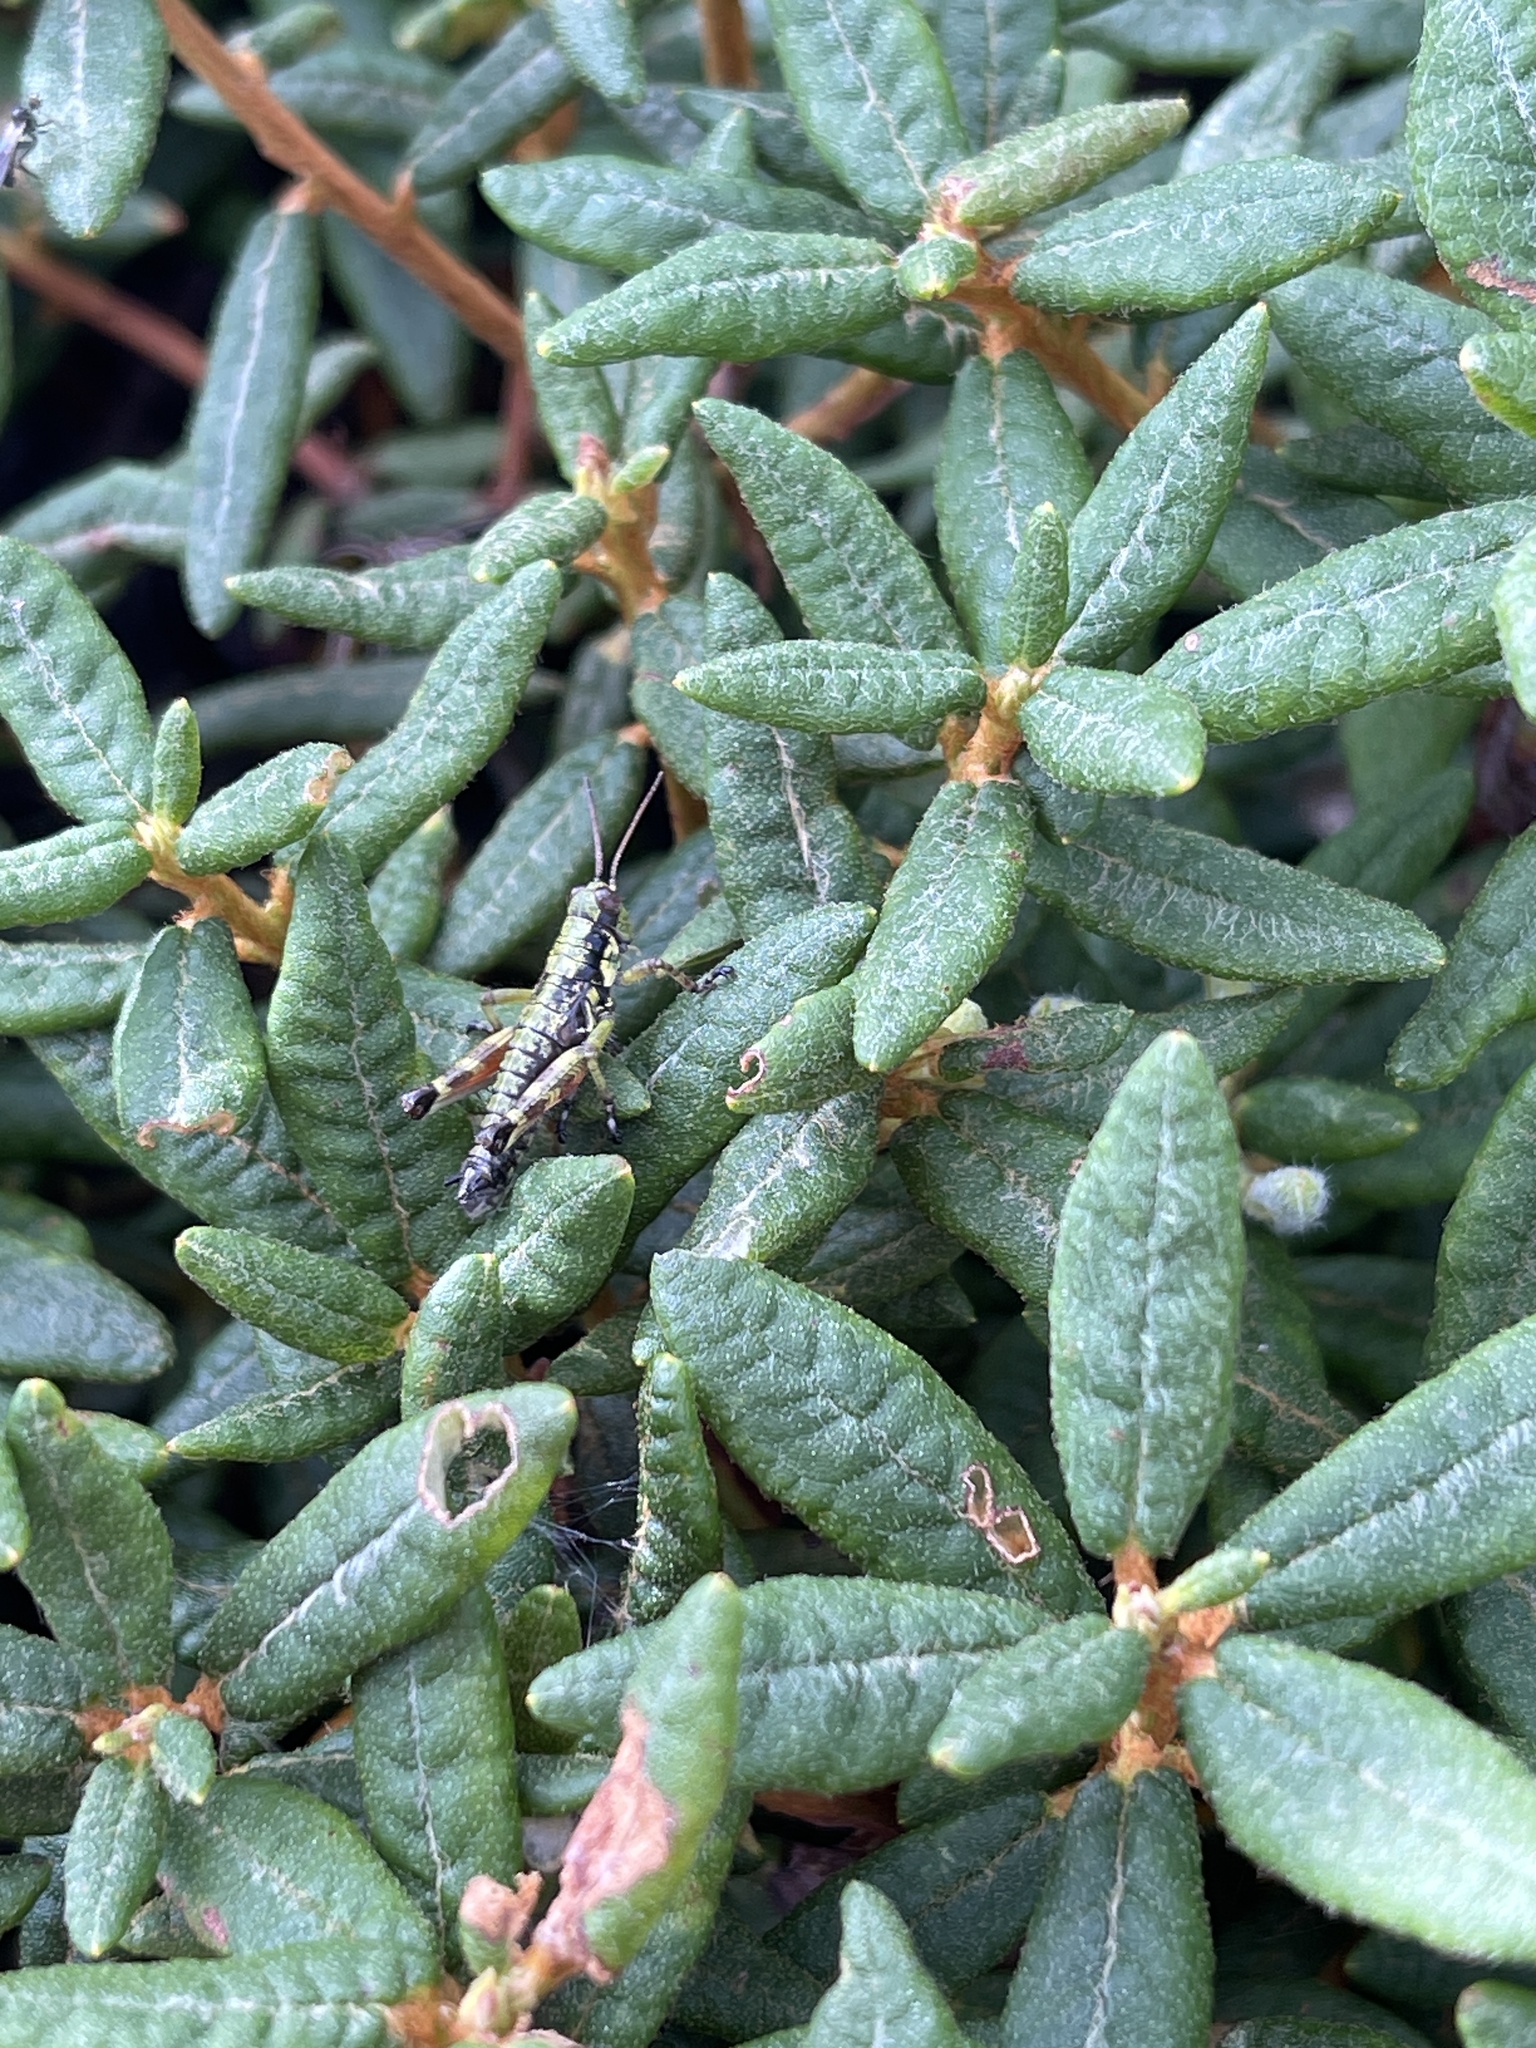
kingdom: Animalia
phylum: Arthropoda
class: Insecta
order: Orthoptera
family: Acrididae
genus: Booneacris
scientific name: Booneacris glacialis
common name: Wingless mountain grasshopper
